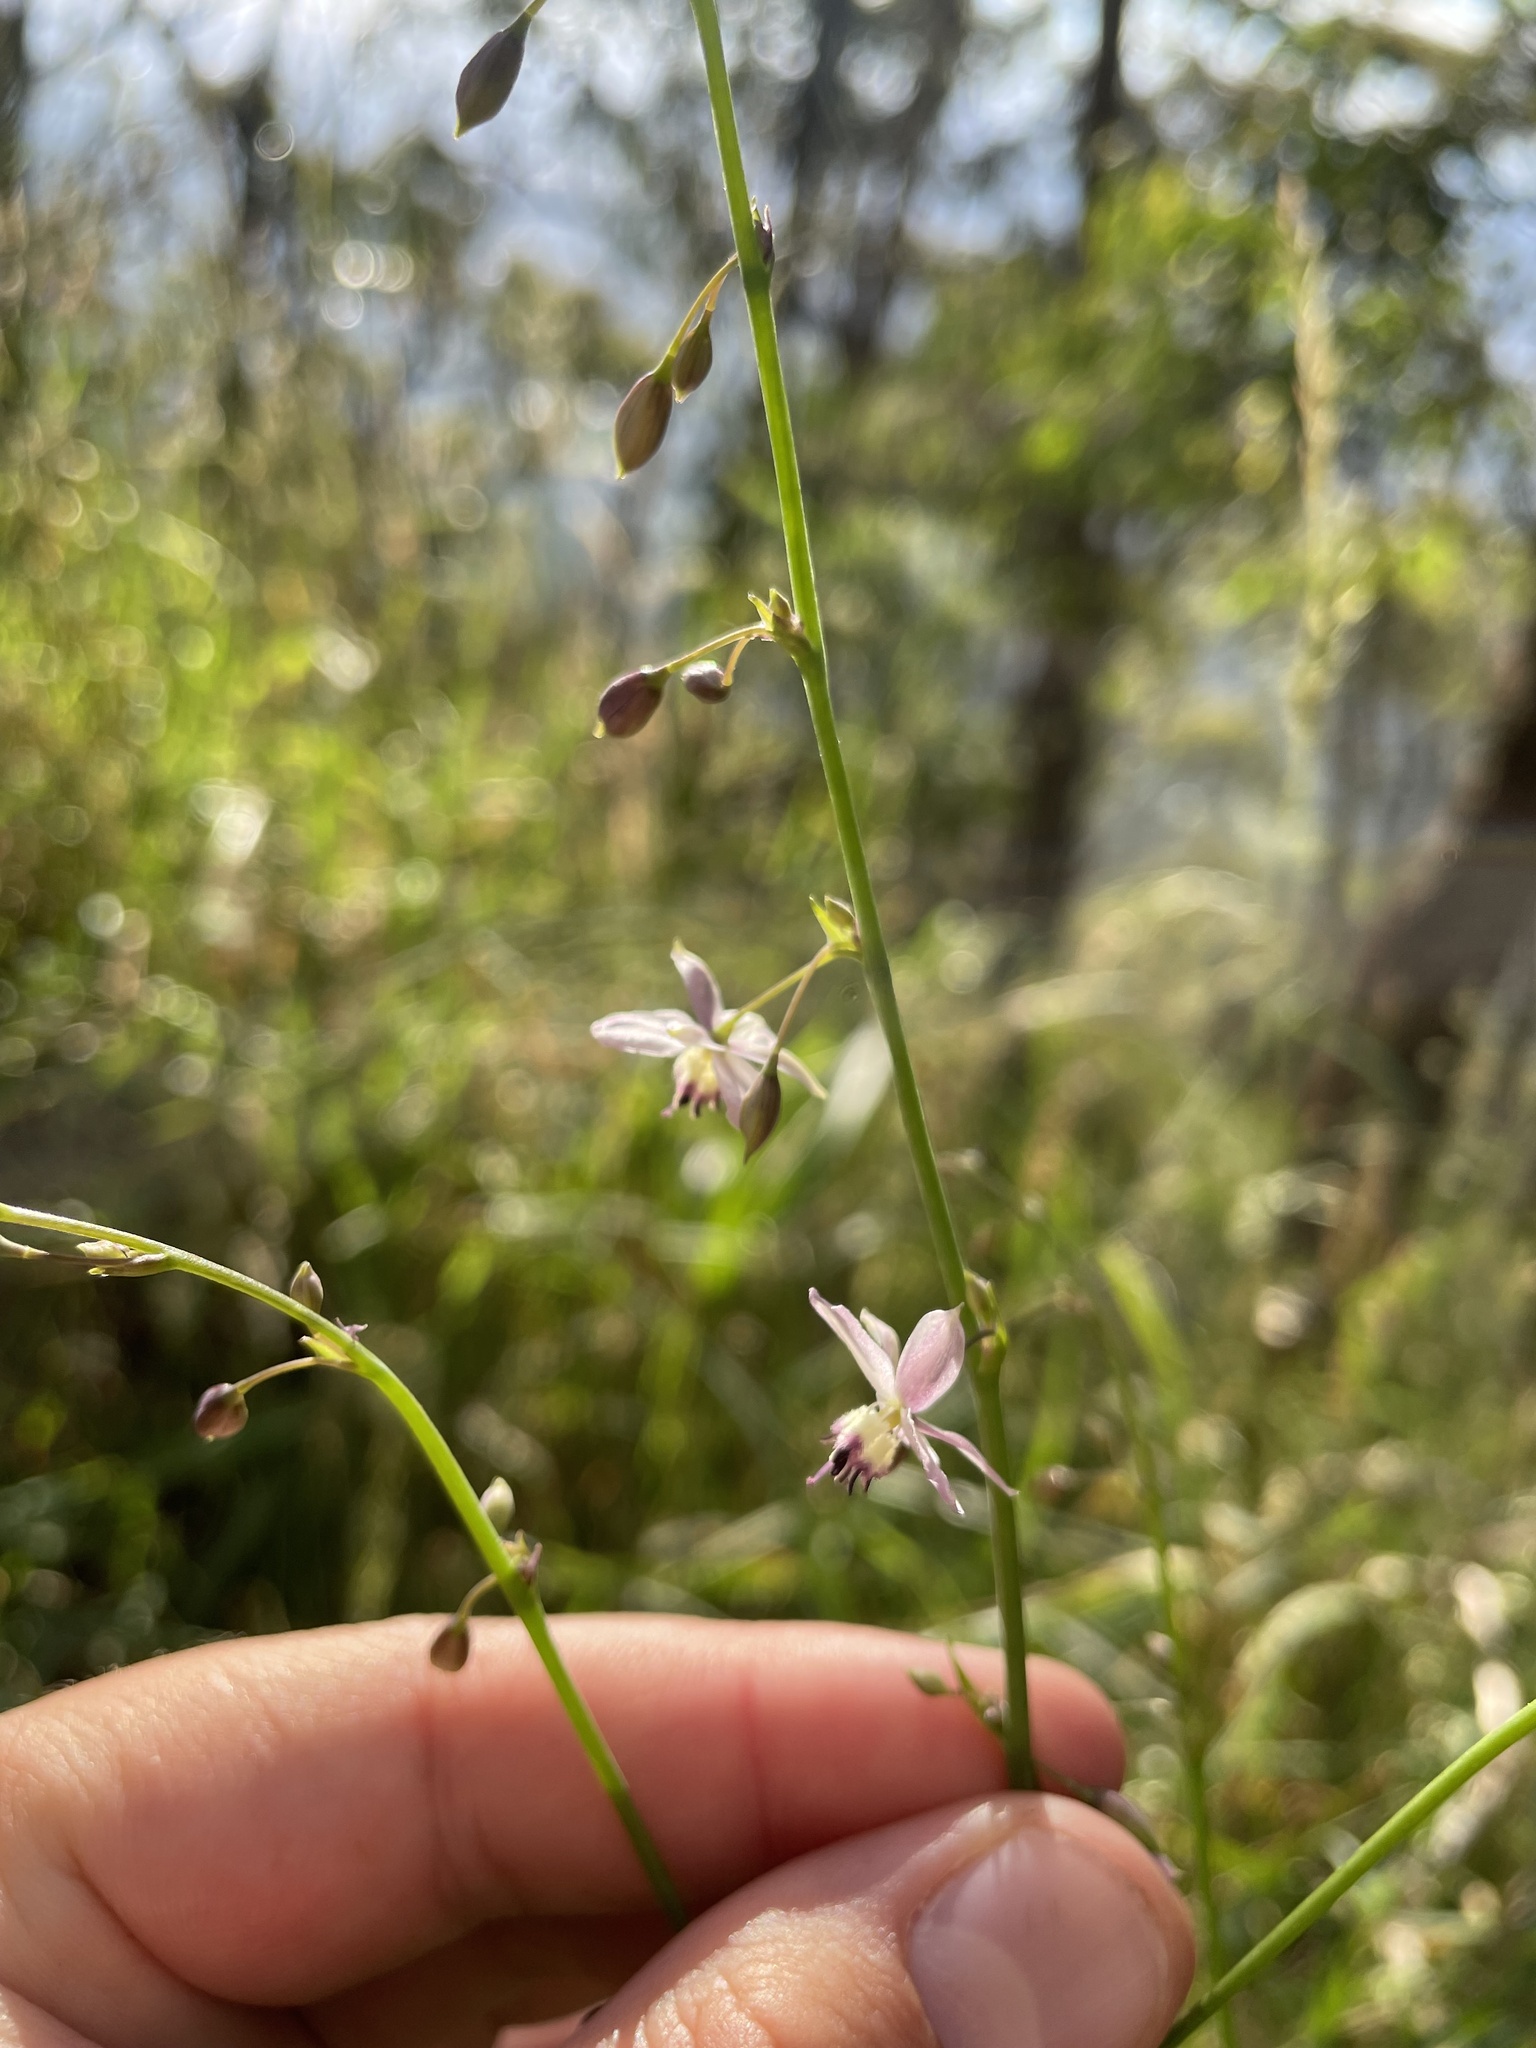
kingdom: Plantae
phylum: Tracheophyta
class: Liliopsida
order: Asparagales
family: Asparagaceae
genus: Arthropodium
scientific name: Arthropodium milleflorum
